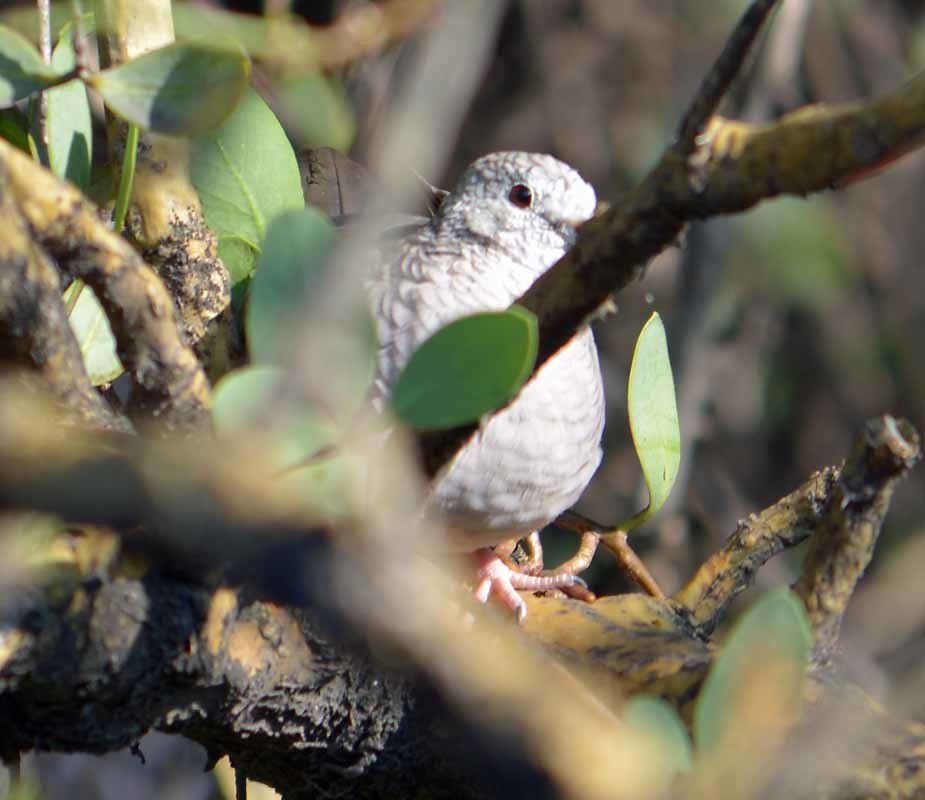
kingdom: Animalia
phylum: Chordata
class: Aves
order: Columbiformes
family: Columbidae
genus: Columbina
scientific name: Columbina inca
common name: Inca dove
